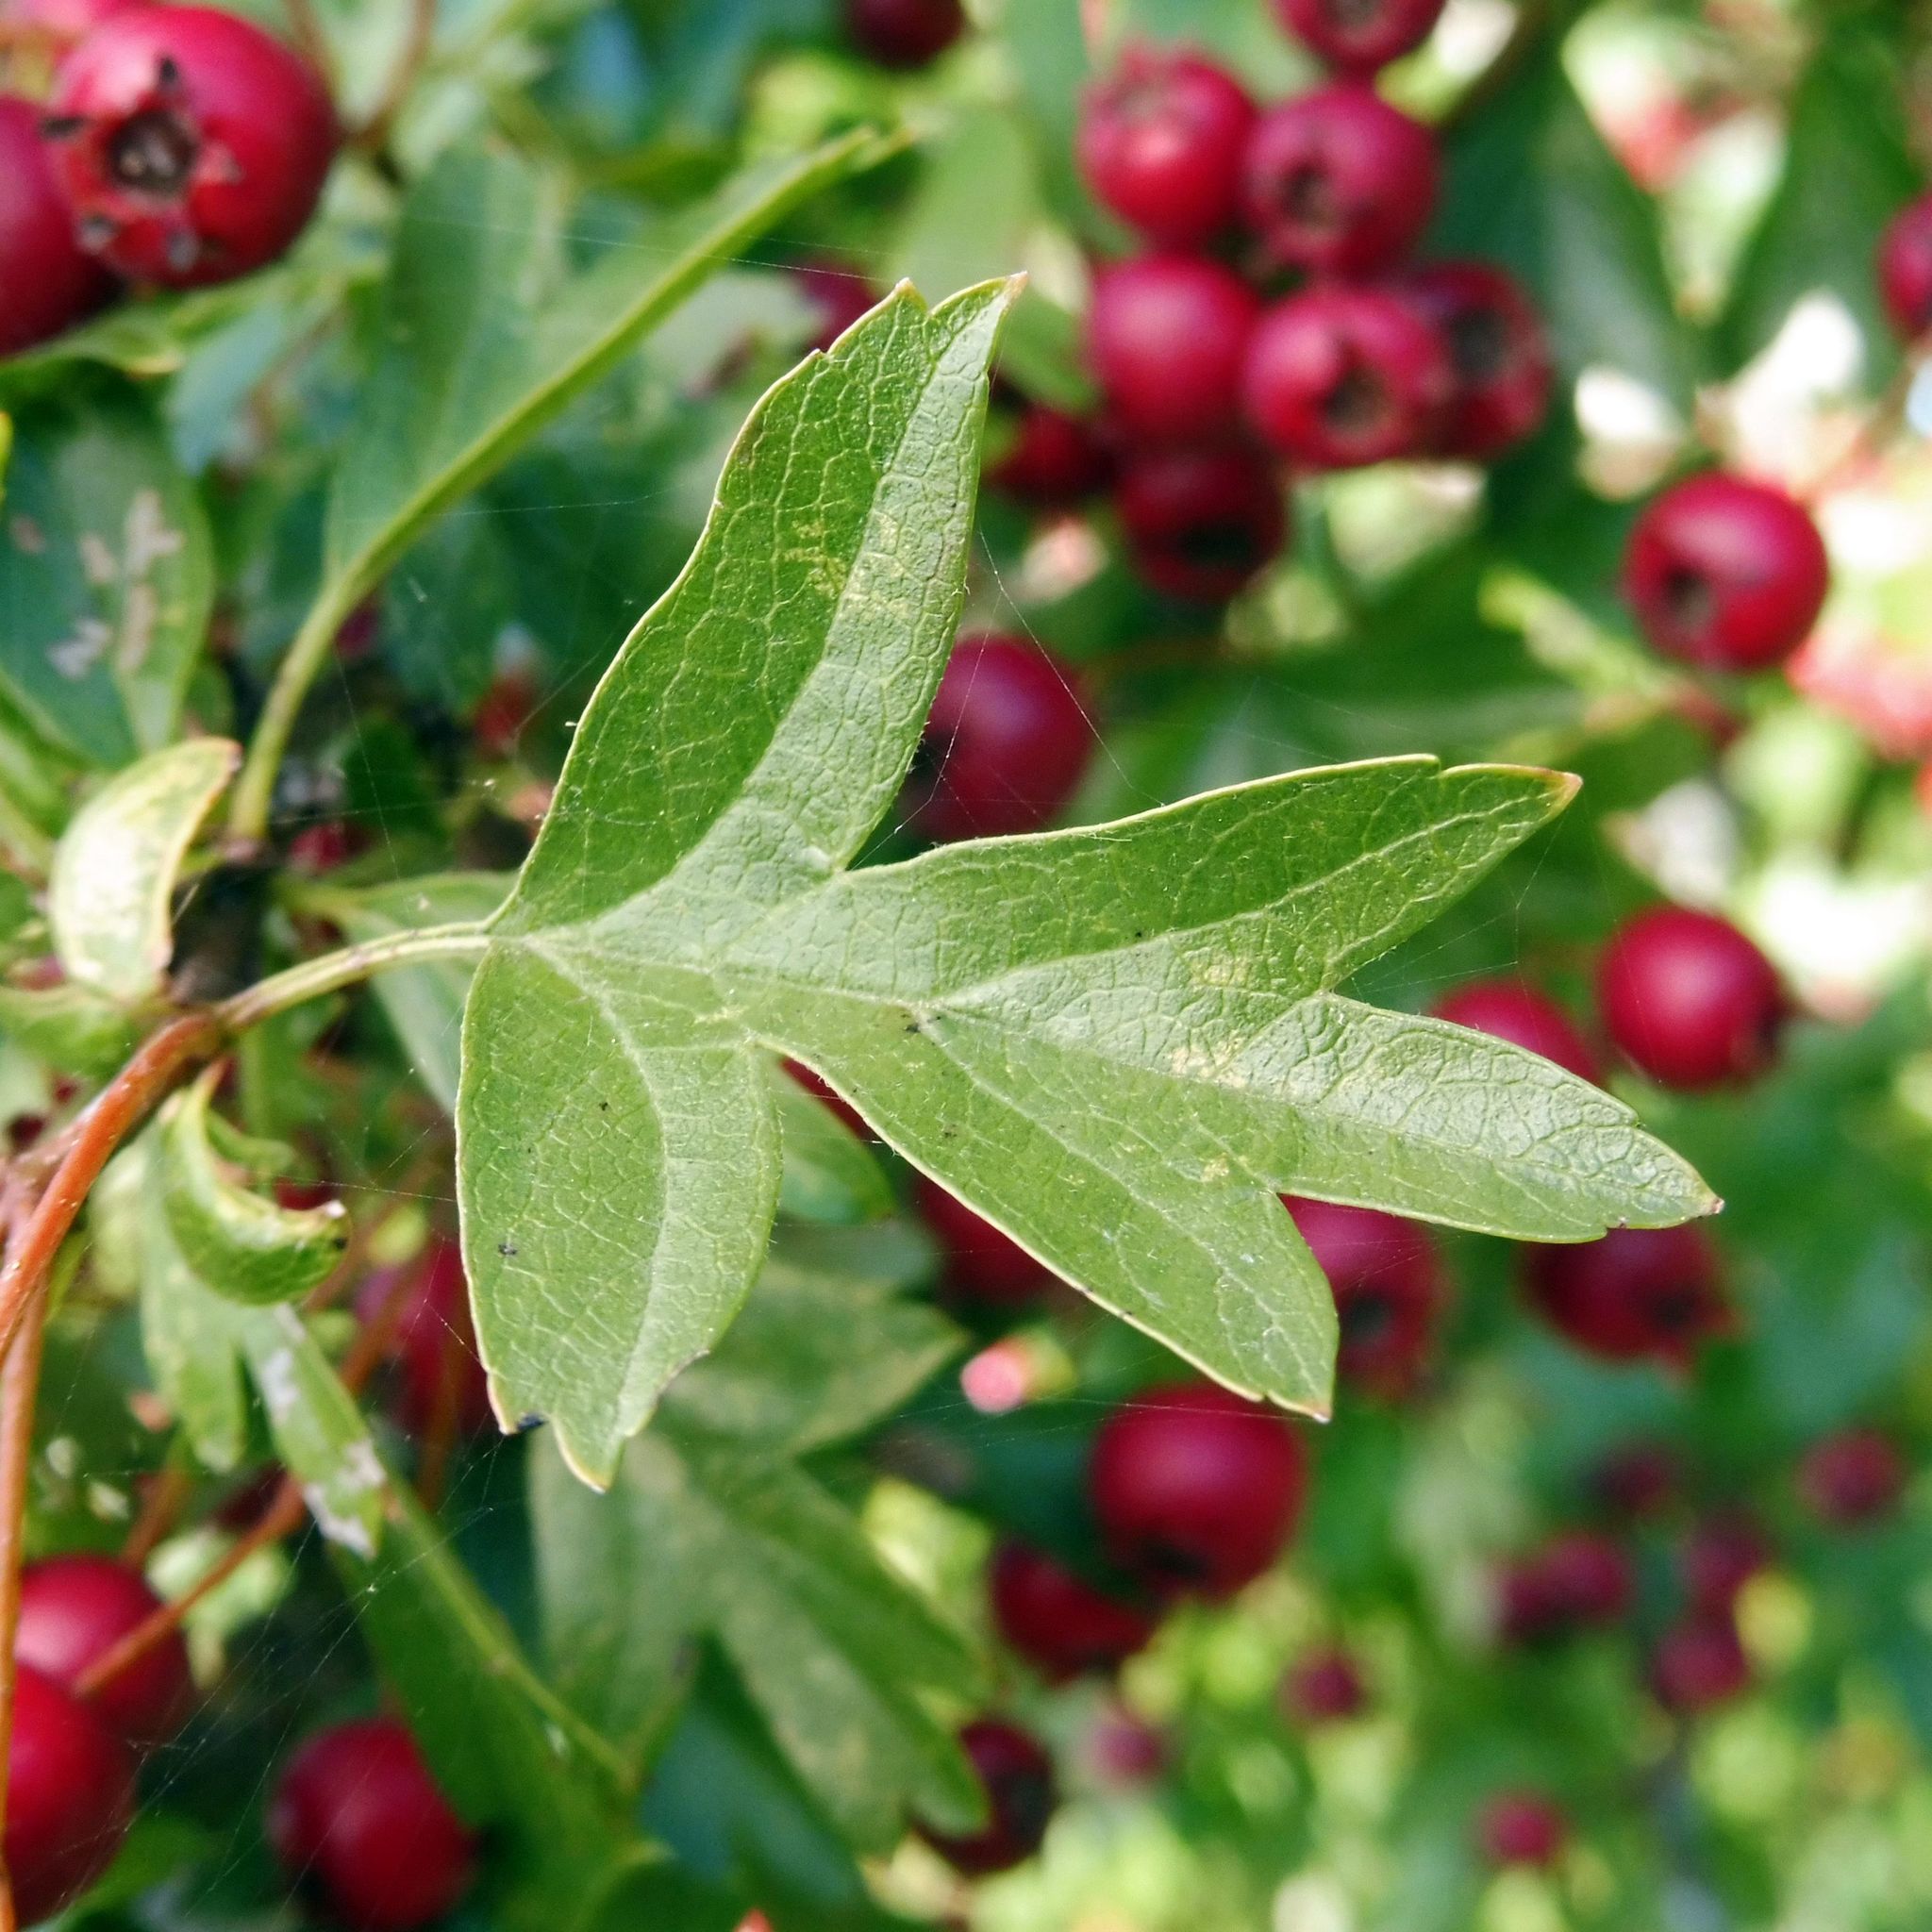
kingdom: Plantae
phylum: Tracheophyta
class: Magnoliopsida
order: Rosales
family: Rosaceae
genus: Crataegus
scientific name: Crataegus monogyna
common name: Hawthorn
